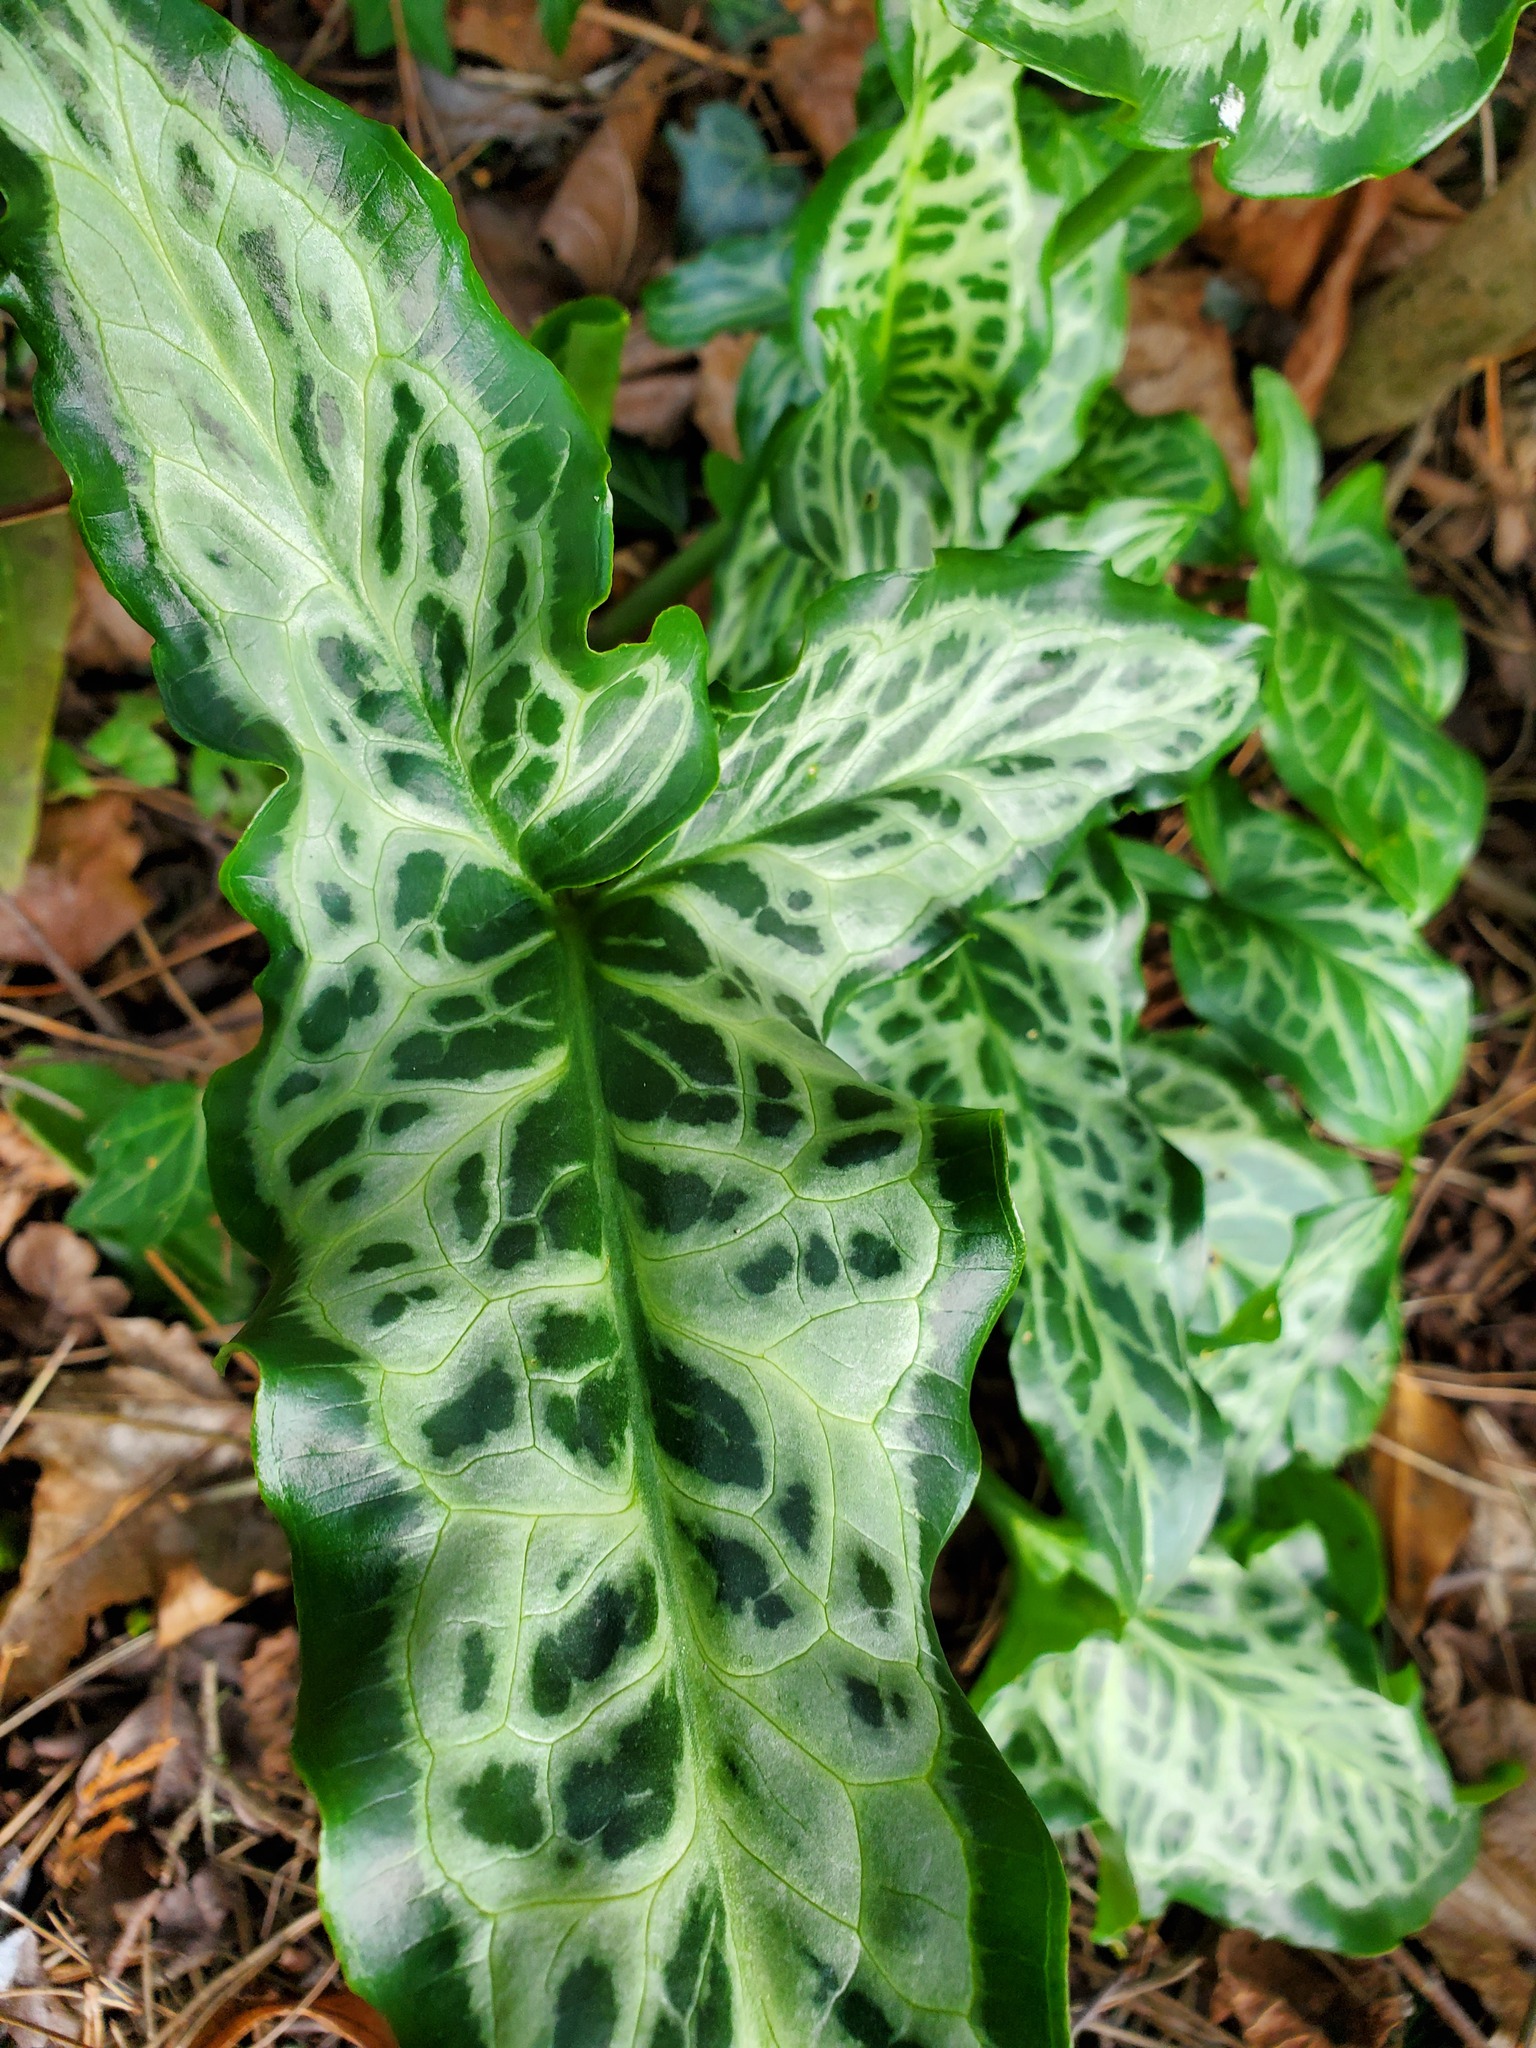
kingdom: Plantae
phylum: Tracheophyta
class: Liliopsida
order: Alismatales
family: Araceae
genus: Arum
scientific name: Arum italicum
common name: Italian lords-and-ladies
